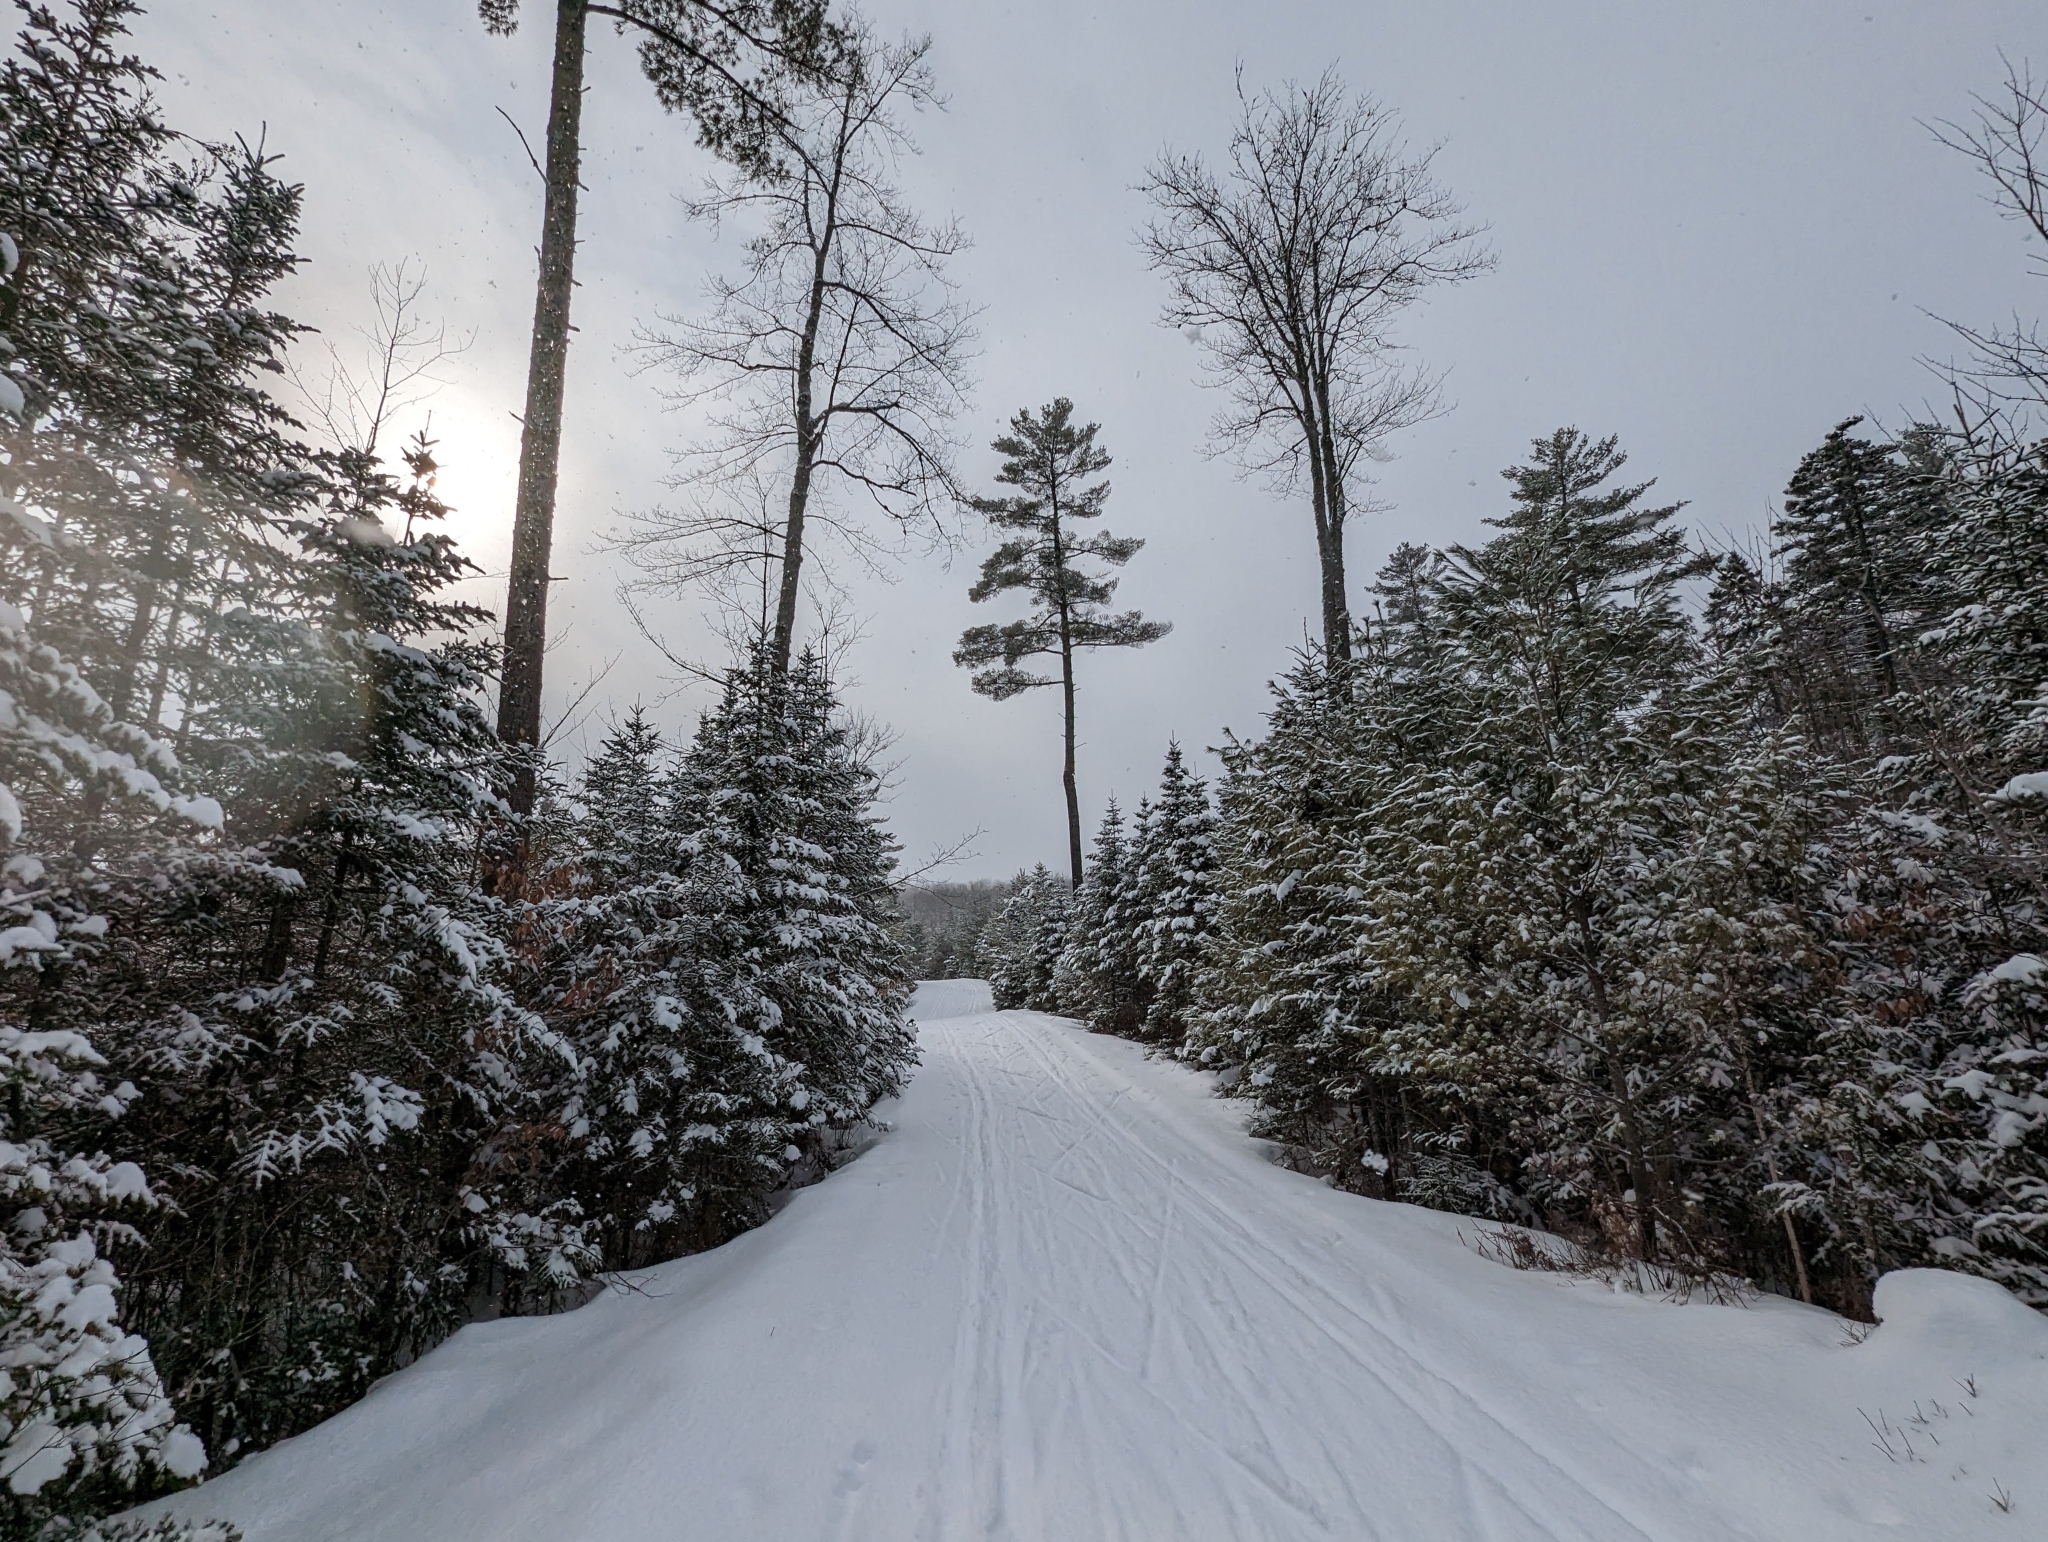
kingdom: Plantae
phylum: Tracheophyta
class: Pinopsida
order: Pinales
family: Pinaceae
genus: Pinus
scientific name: Pinus strobus
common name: Weymouth pine
